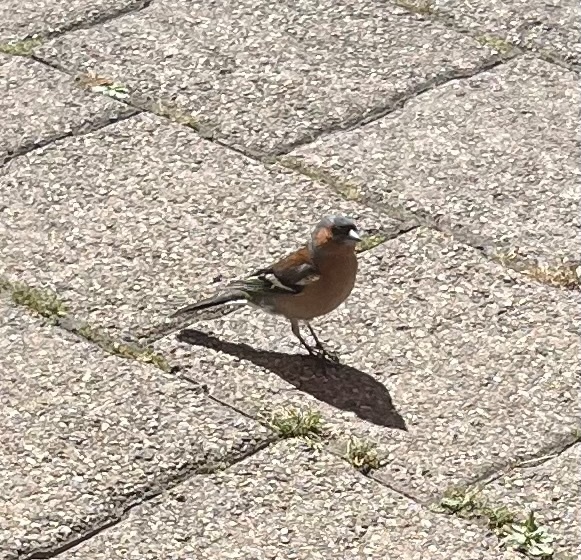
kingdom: Animalia
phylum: Chordata
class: Aves
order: Passeriformes
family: Fringillidae
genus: Fringilla
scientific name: Fringilla coelebs
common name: Common chaffinch
